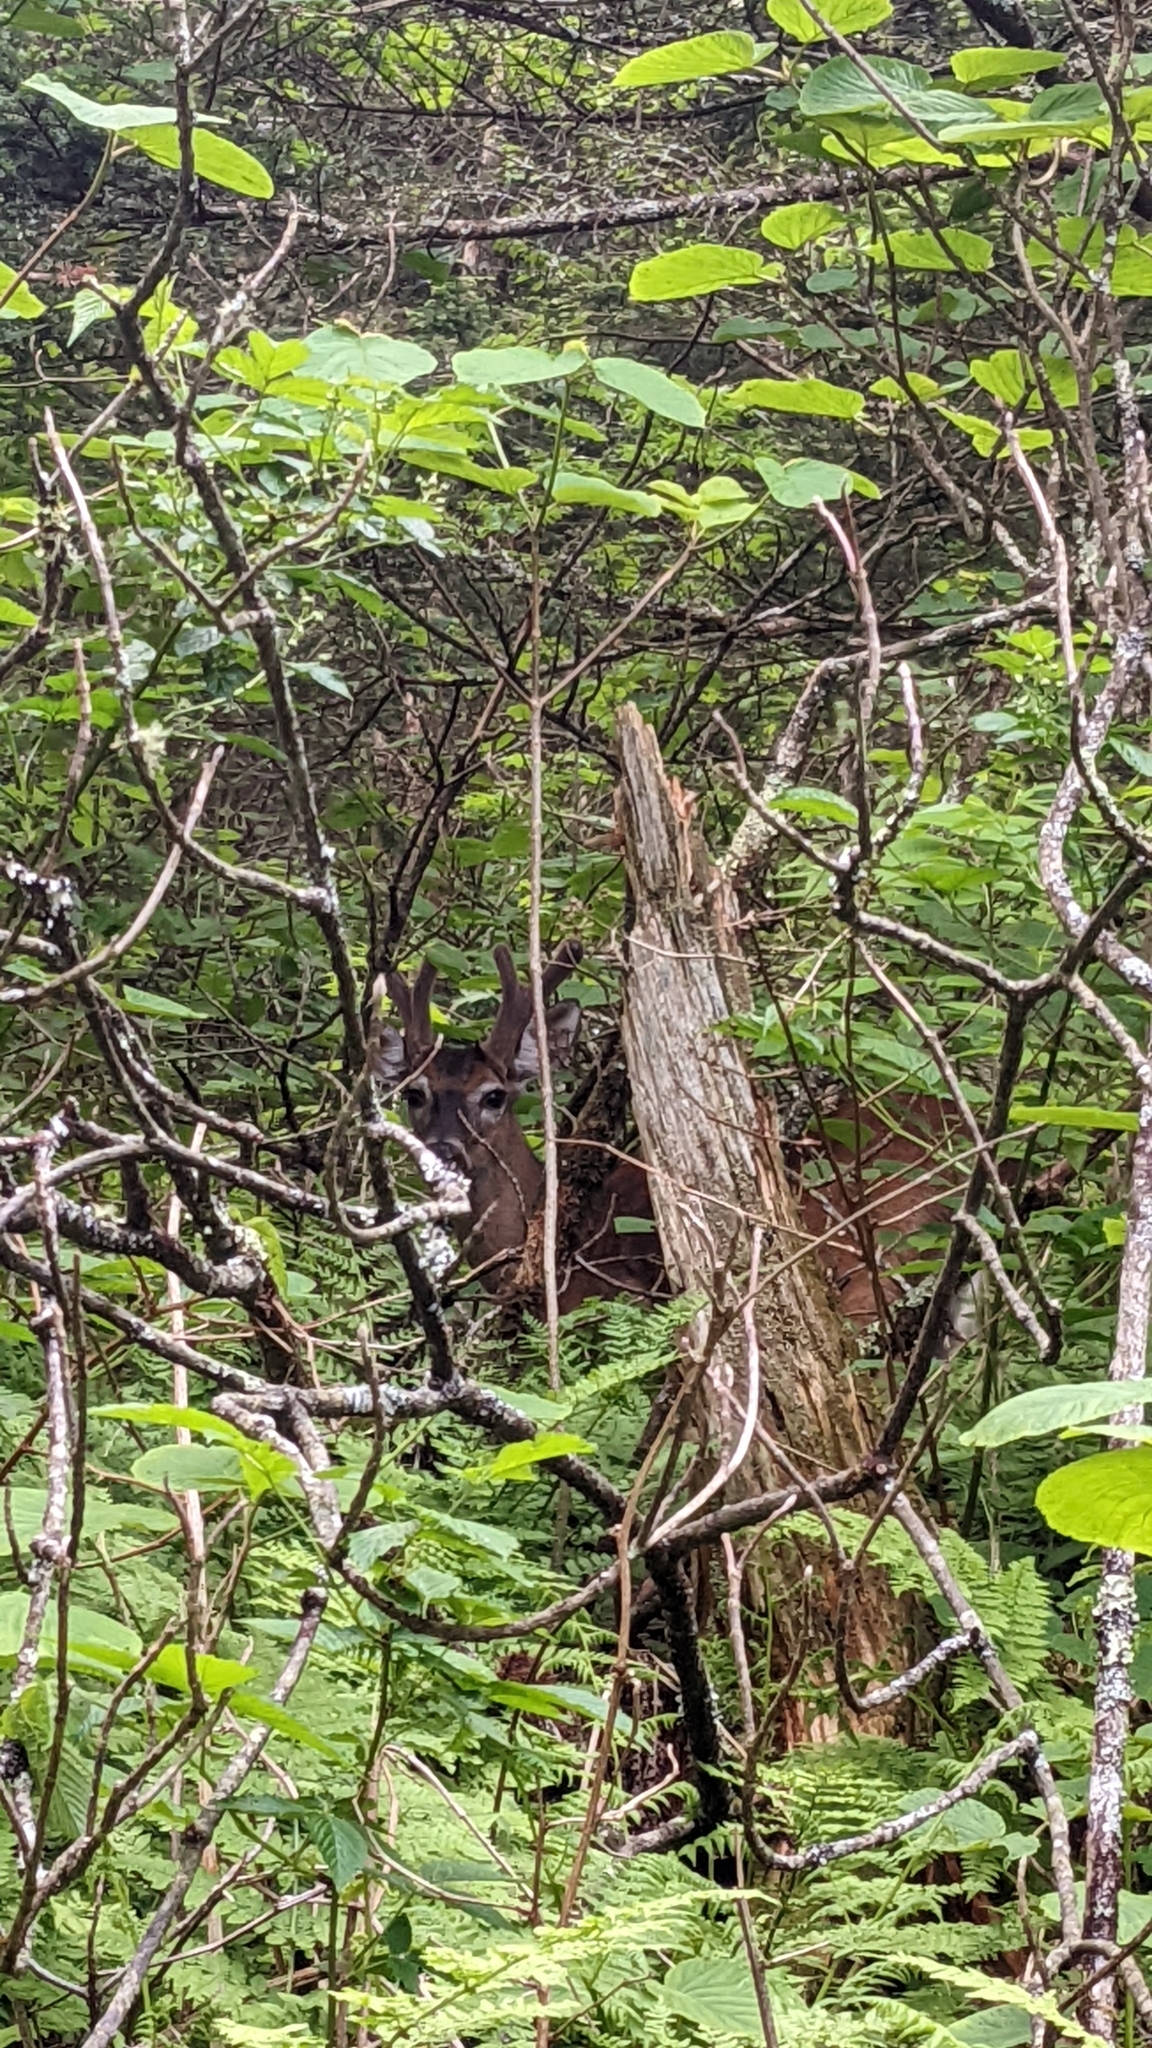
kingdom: Animalia
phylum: Chordata
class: Mammalia
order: Artiodactyla
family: Cervidae
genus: Odocoileus
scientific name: Odocoileus virginianus
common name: White-tailed deer
